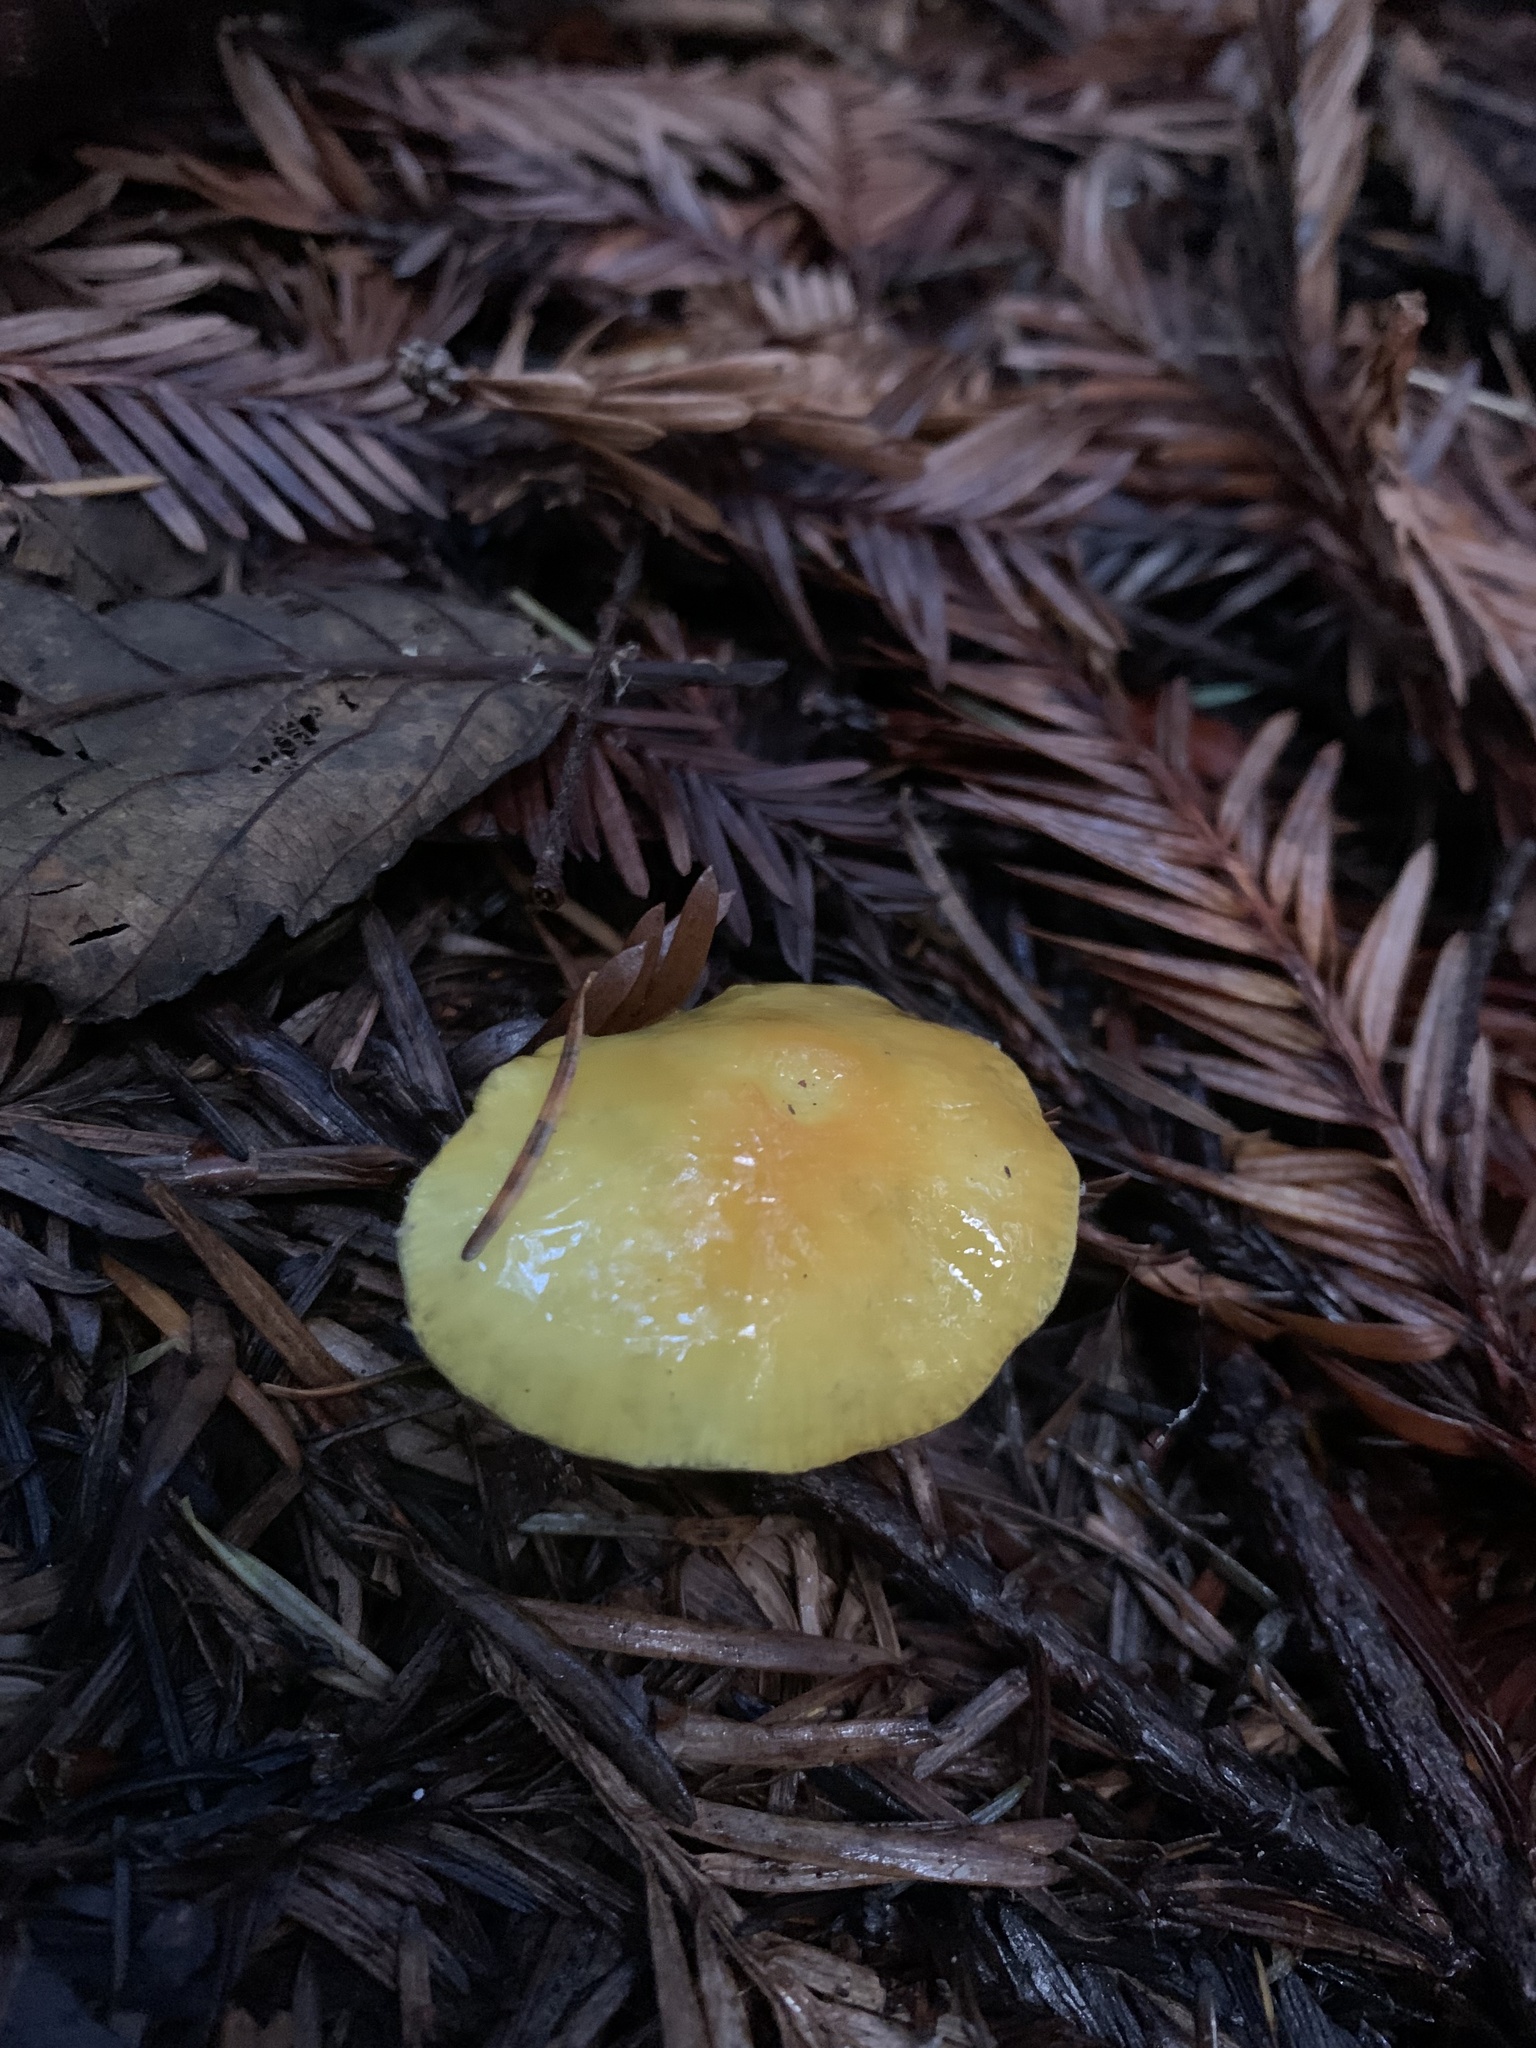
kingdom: Fungi
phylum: Basidiomycota
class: Agaricomycetes
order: Agaricales
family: Hygrophoraceae
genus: Hygrocybe
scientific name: Hygrocybe flavescens
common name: Golden waxy cap
